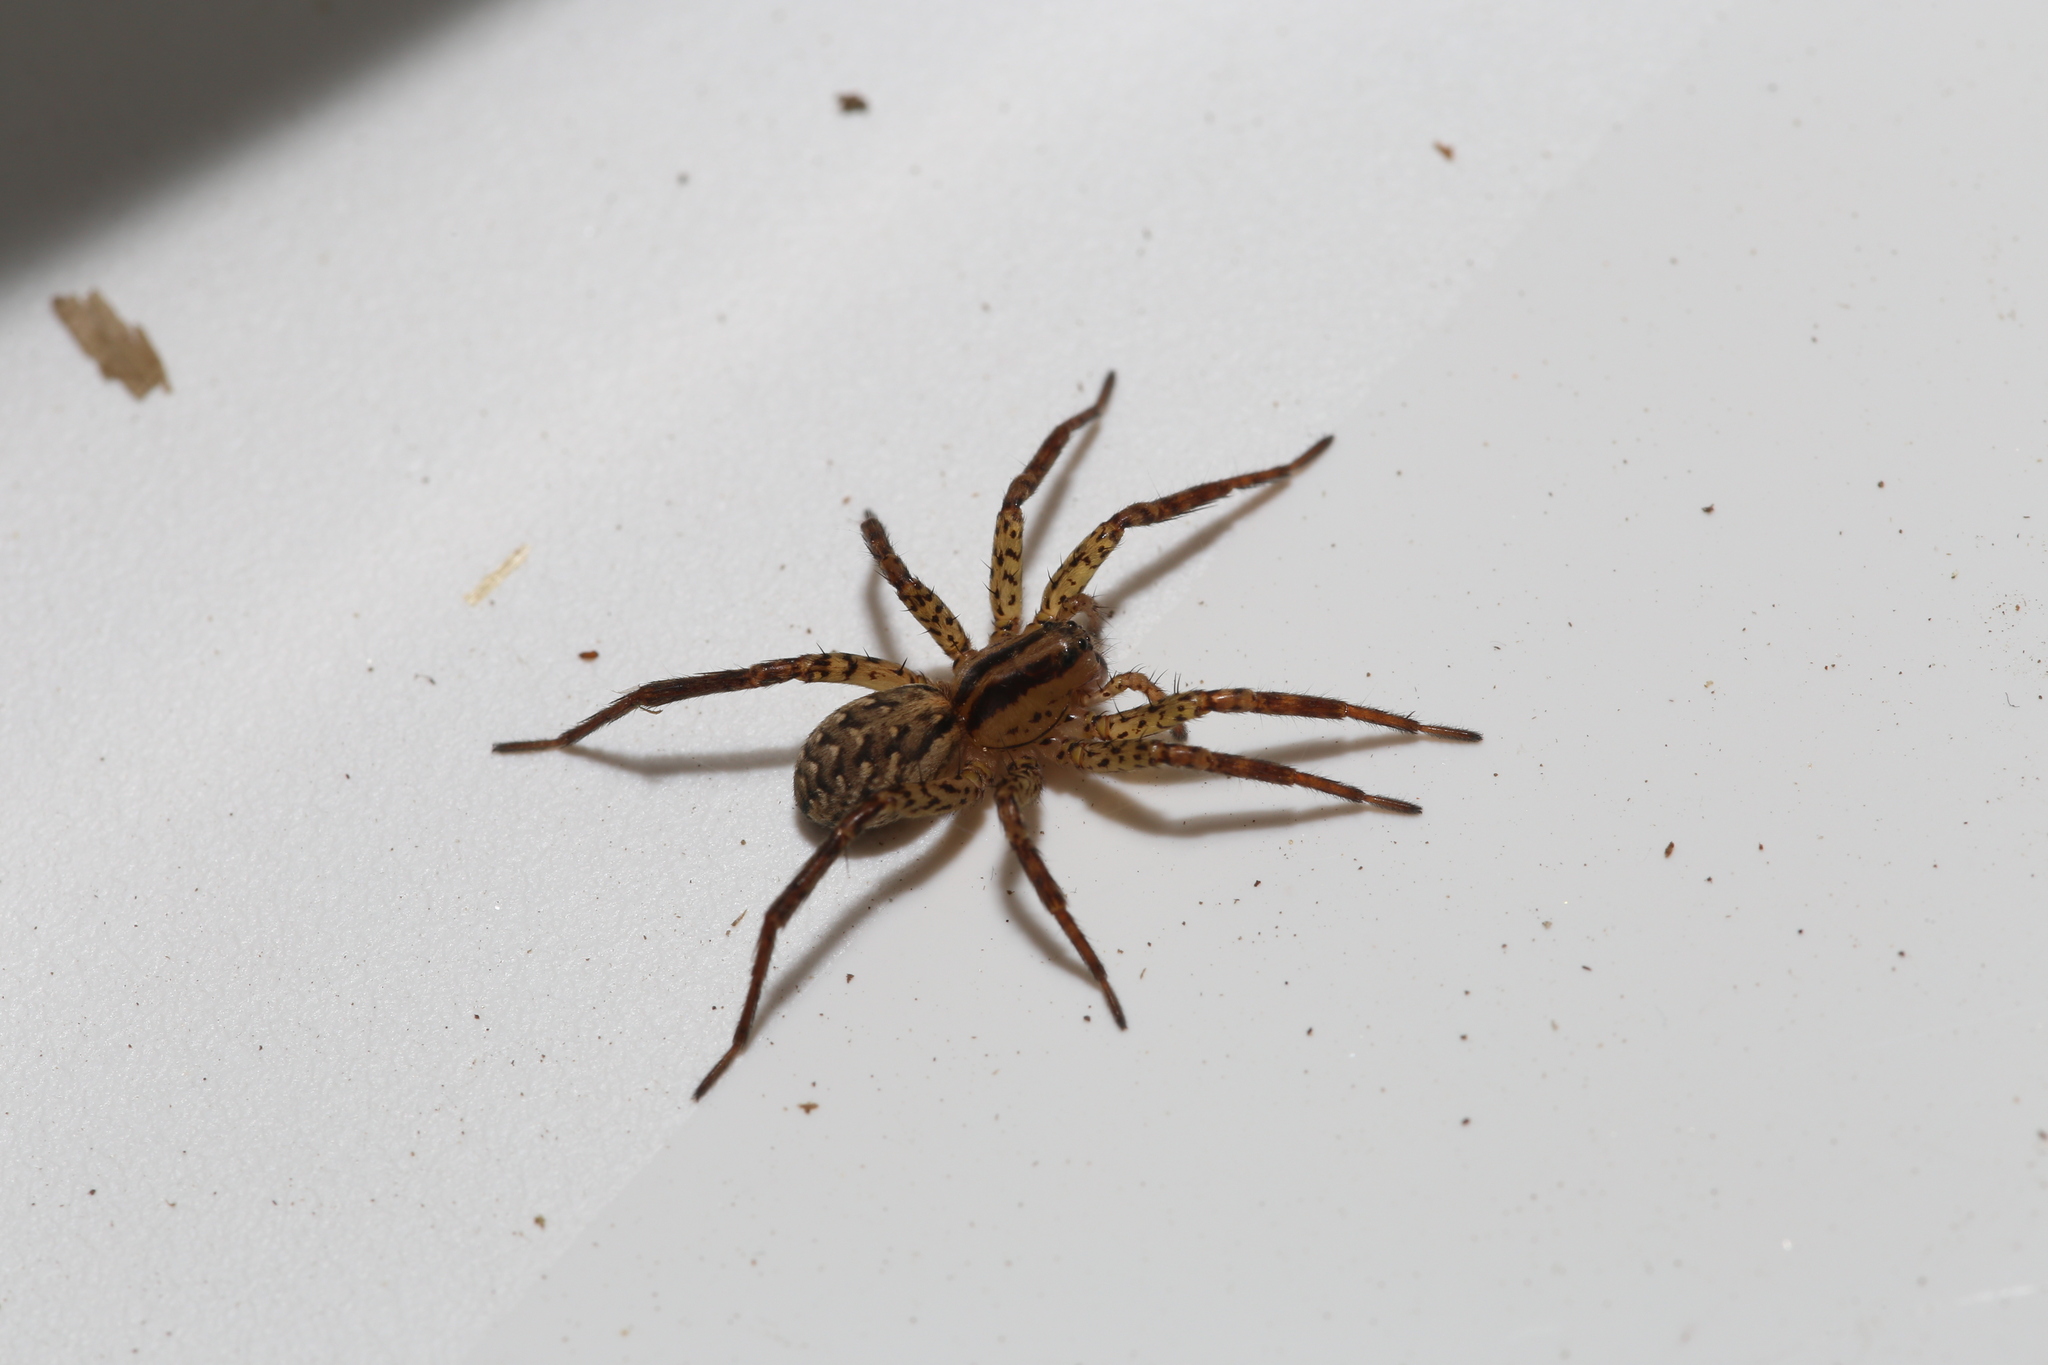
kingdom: Animalia
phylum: Arthropoda
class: Arachnida
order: Araneae
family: Lycosidae
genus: Hygrolycosa
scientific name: Hygrolycosa rubrofasciata
